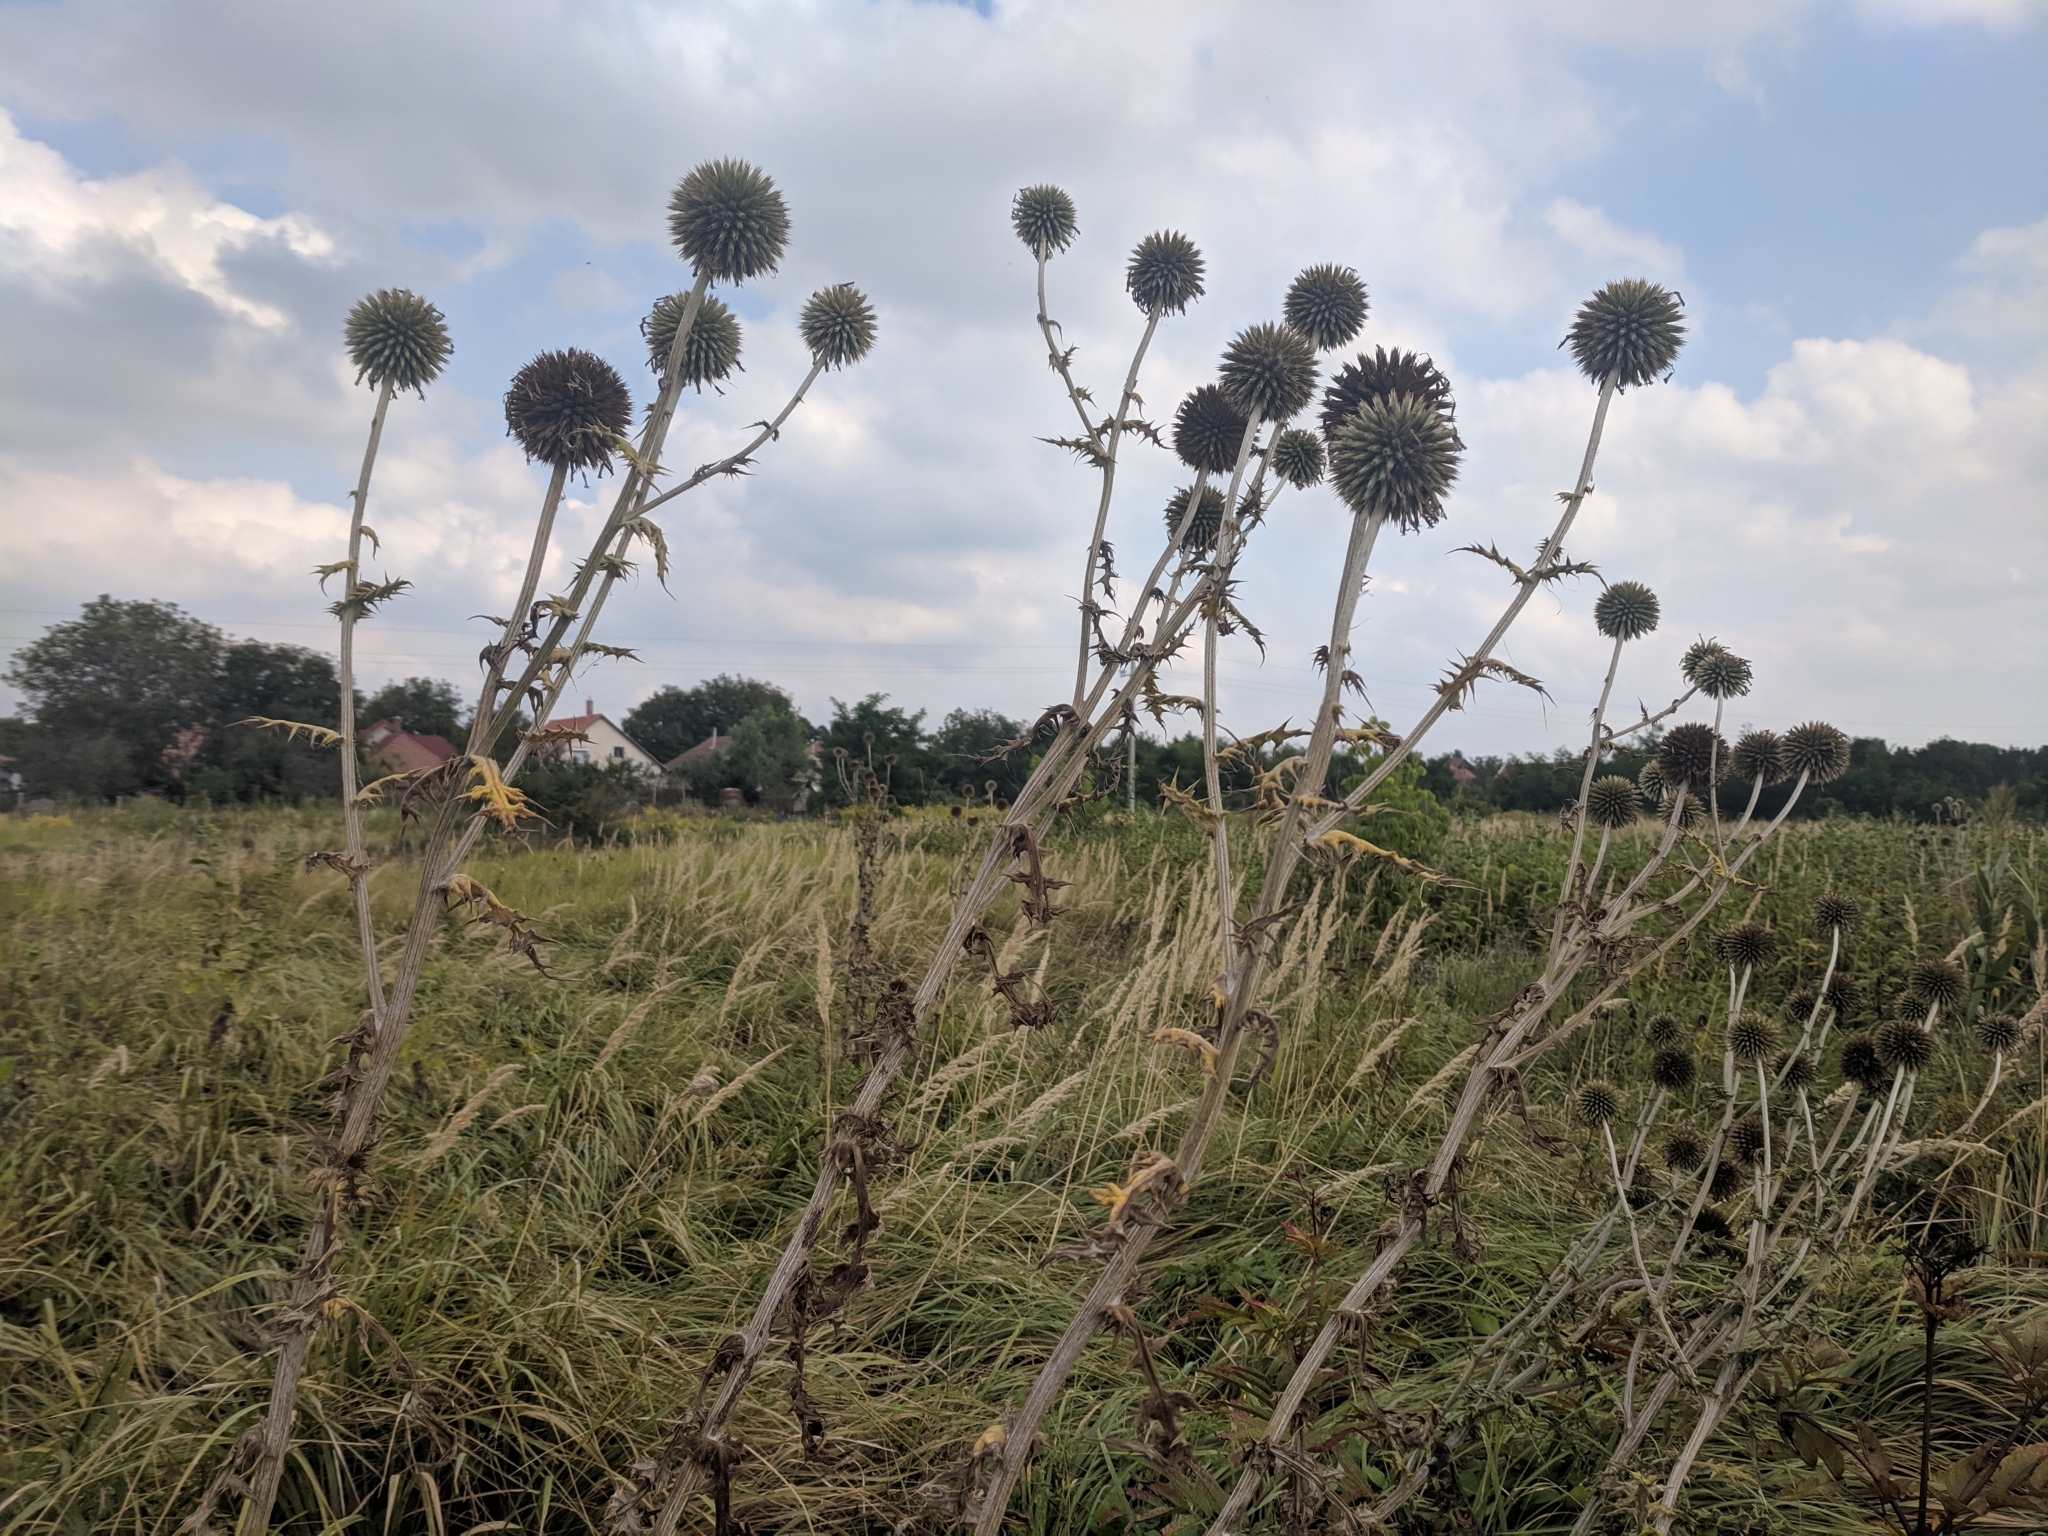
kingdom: Plantae
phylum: Tracheophyta
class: Magnoliopsida
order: Asterales
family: Asteraceae
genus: Echinops
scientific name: Echinops sphaerocephalus
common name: Glandular globe-thistle
